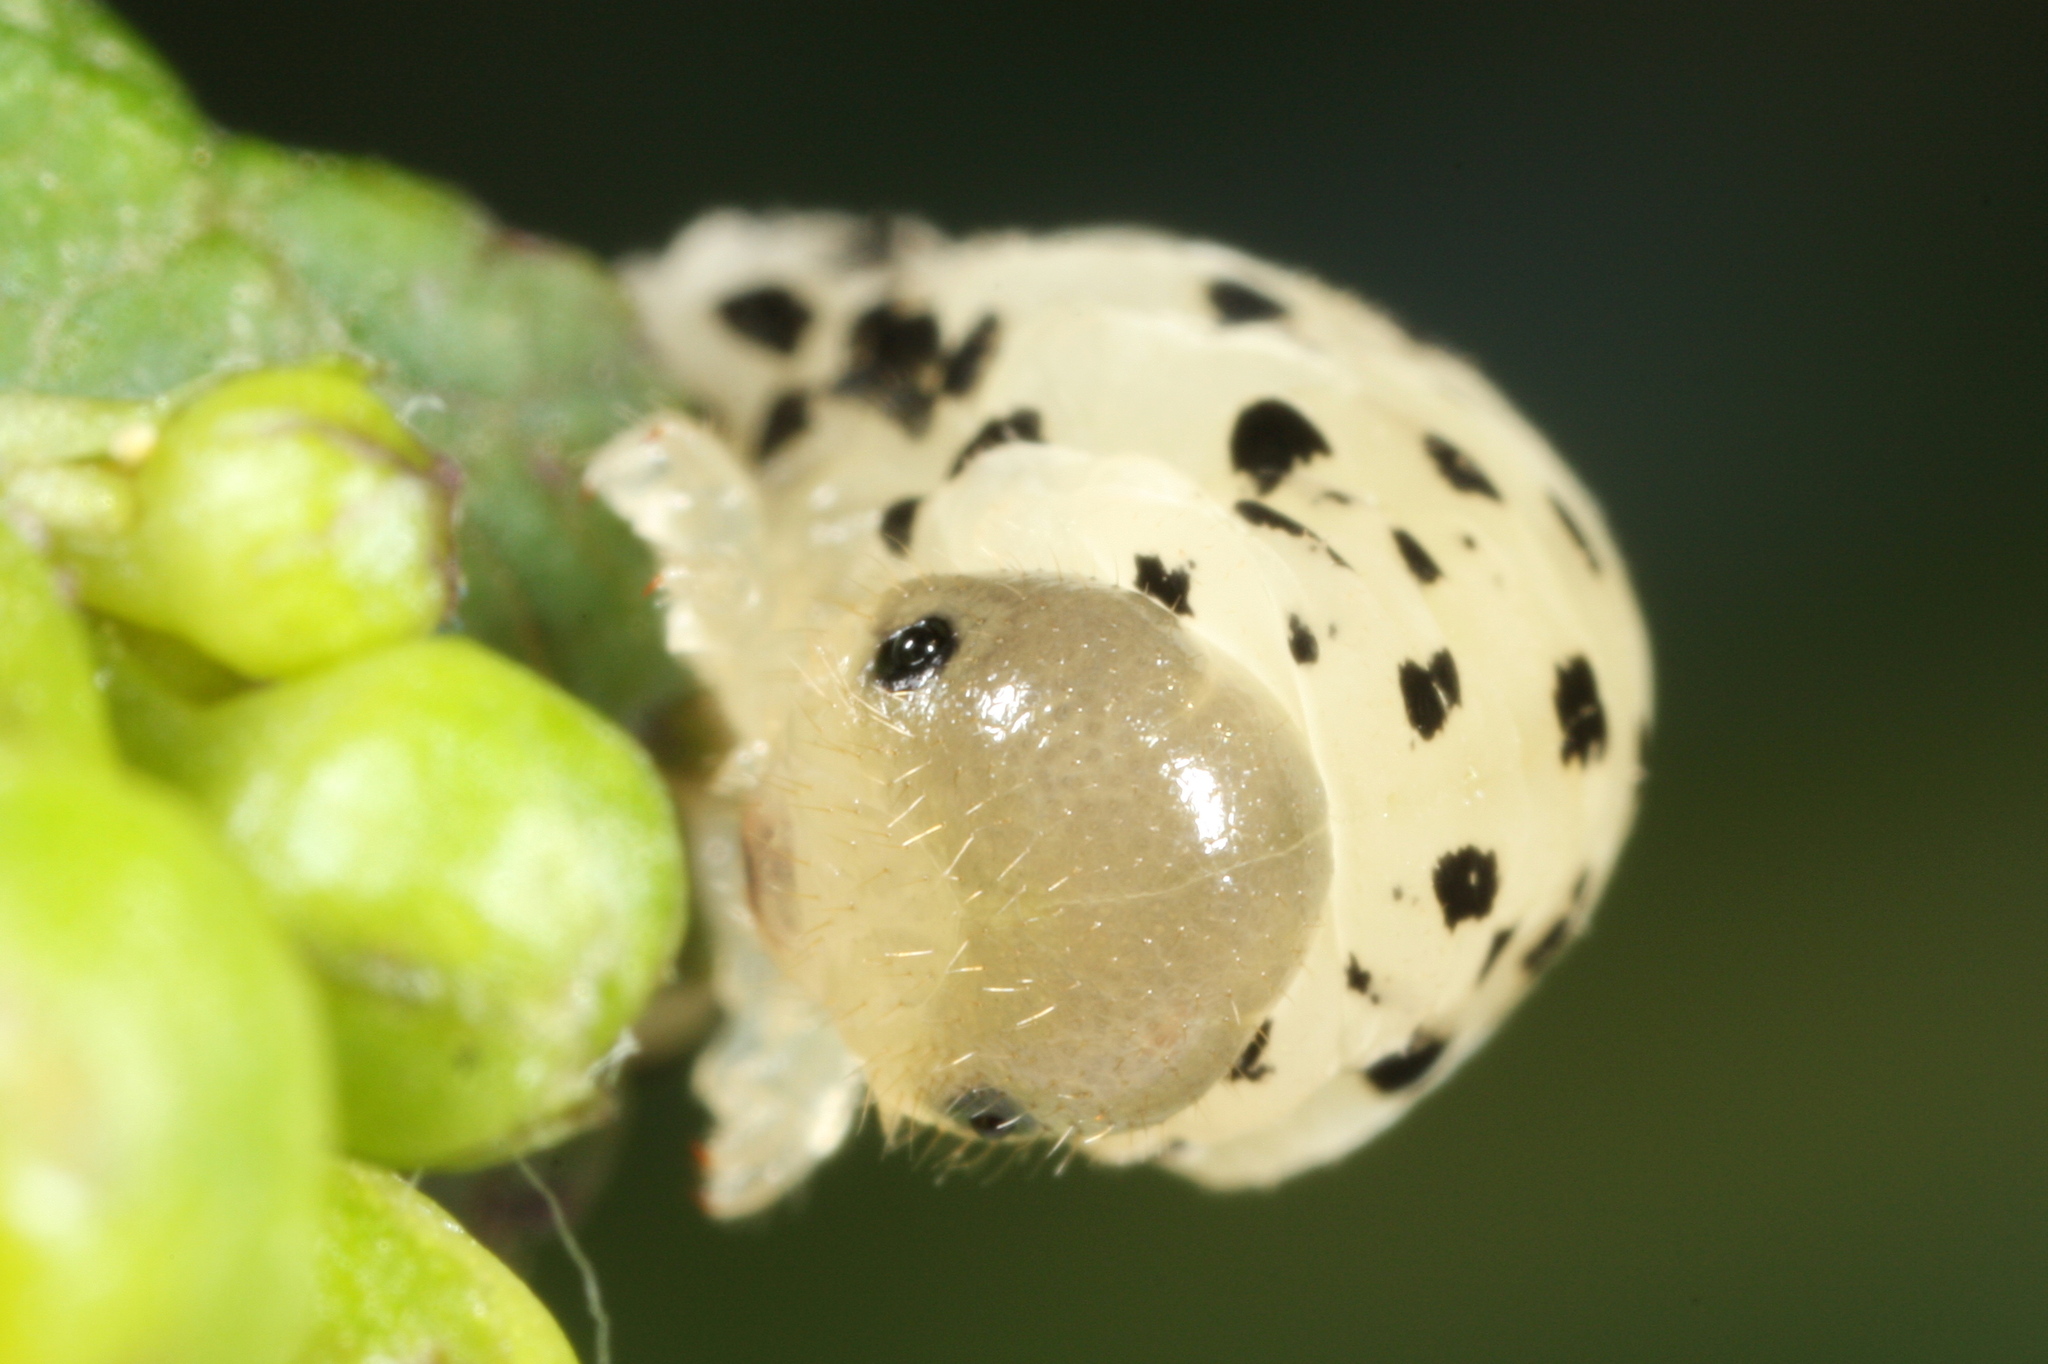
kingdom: Animalia
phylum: Arthropoda
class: Insecta
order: Hymenoptera
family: Tenthredinidae
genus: Tenthredo
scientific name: Tenthredo scrophulariae
